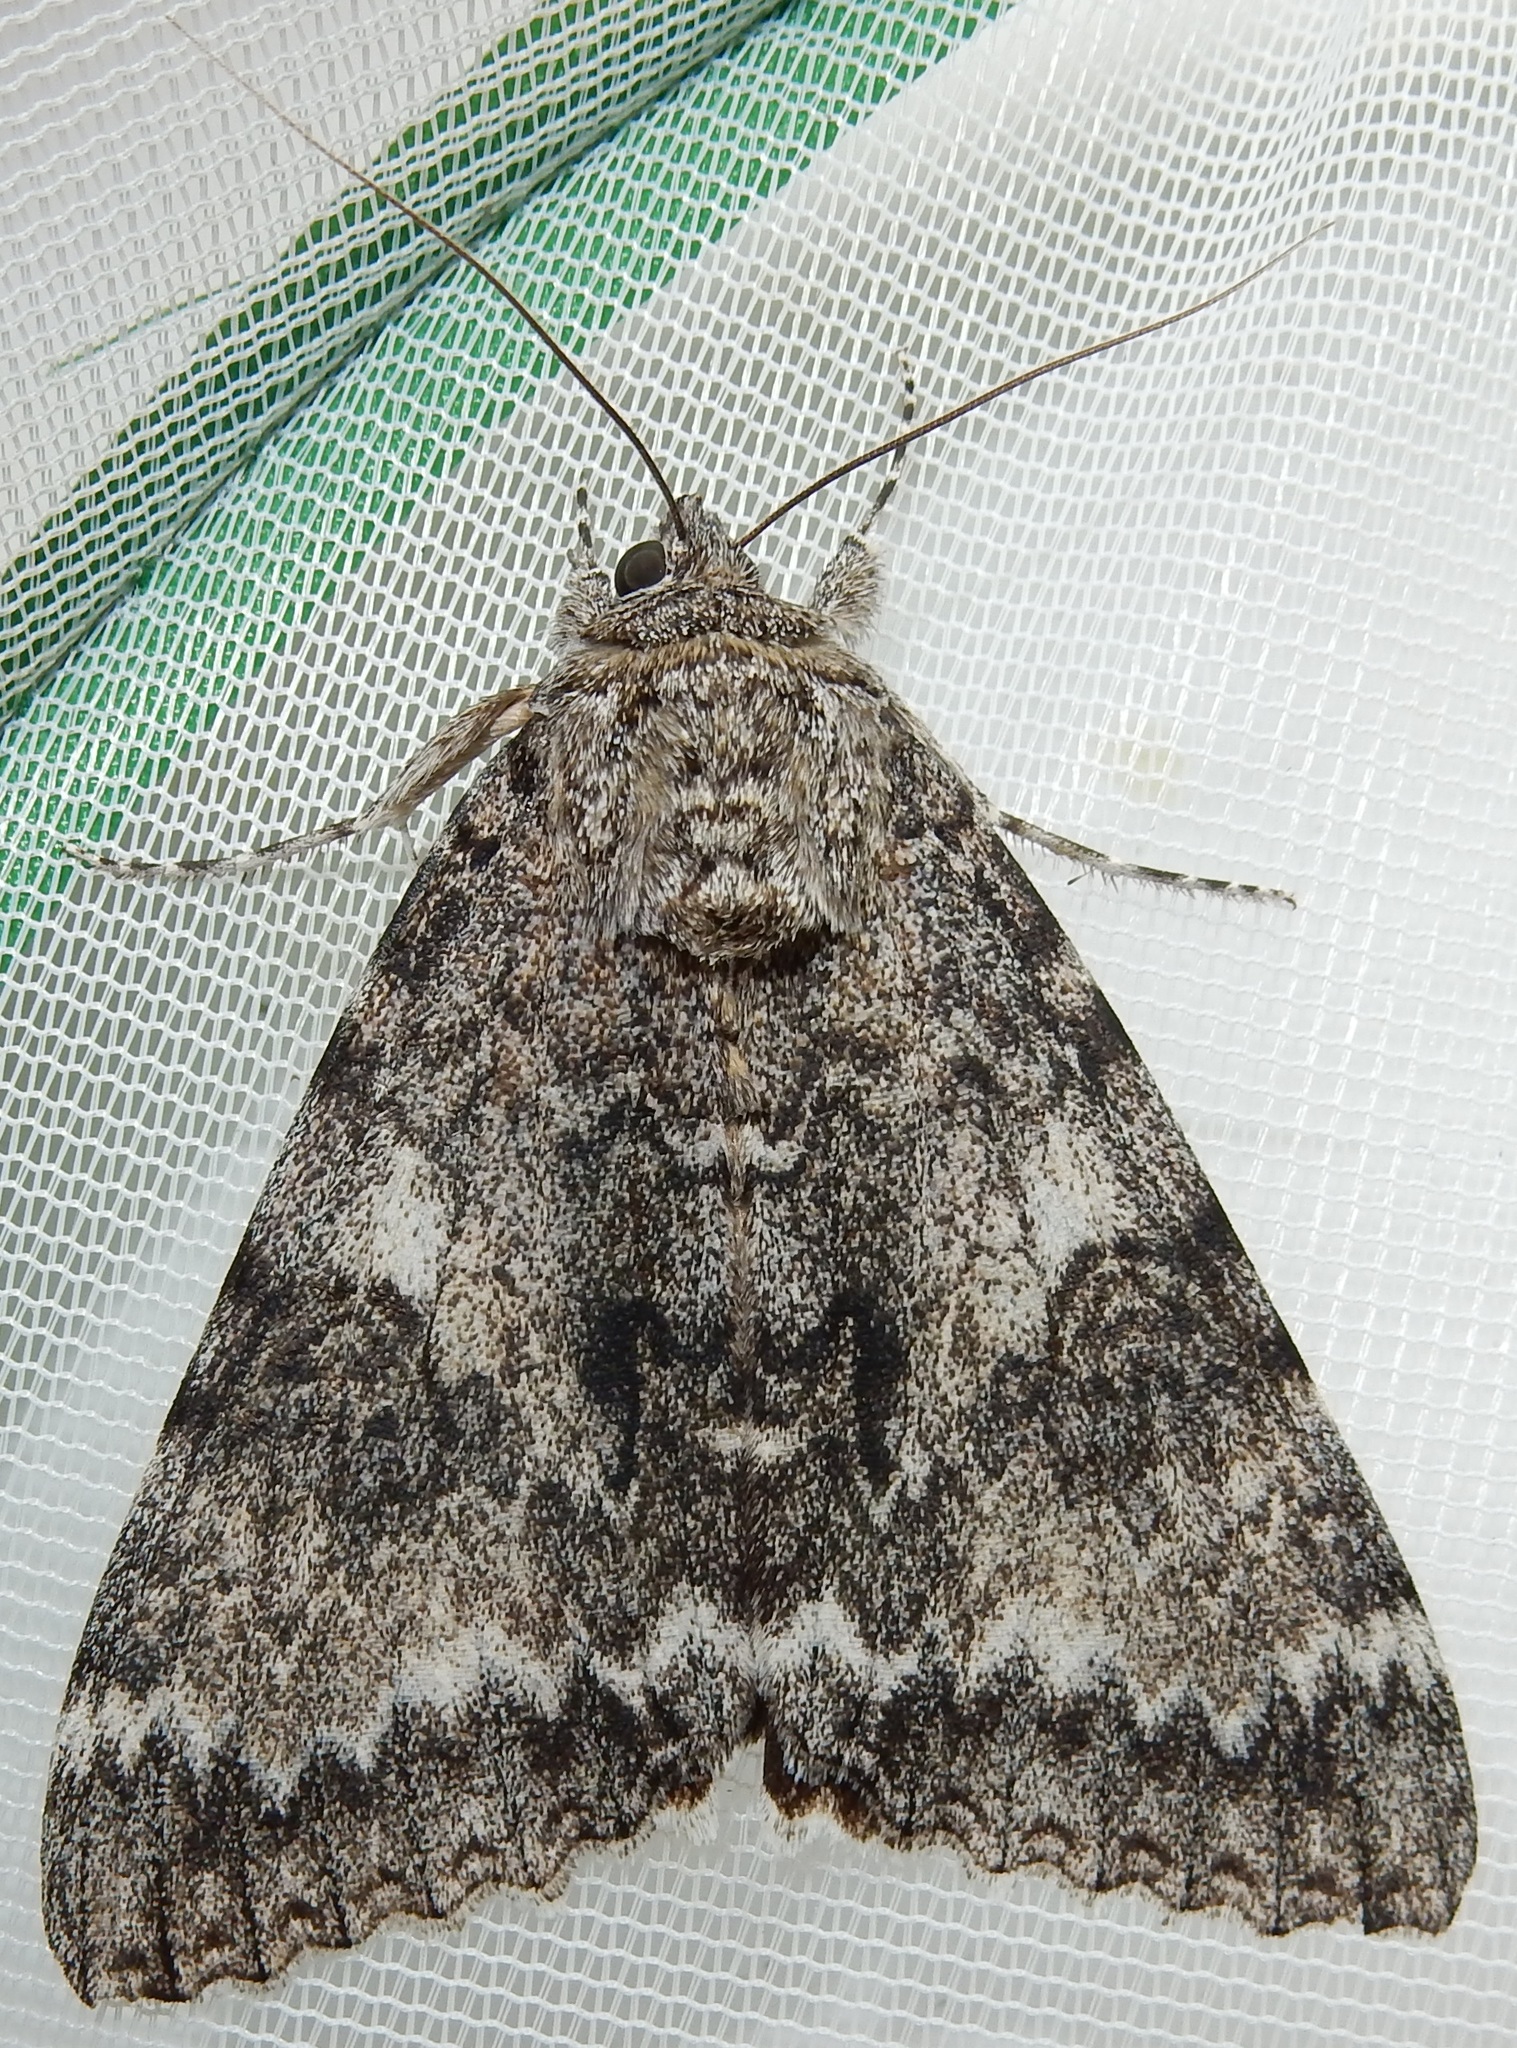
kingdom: Animalia
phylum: Arthropoda
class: Insecta
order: Lepidoptera
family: Erebidae
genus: Catocala
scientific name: Catocala unijuga
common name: Once-married underwing
